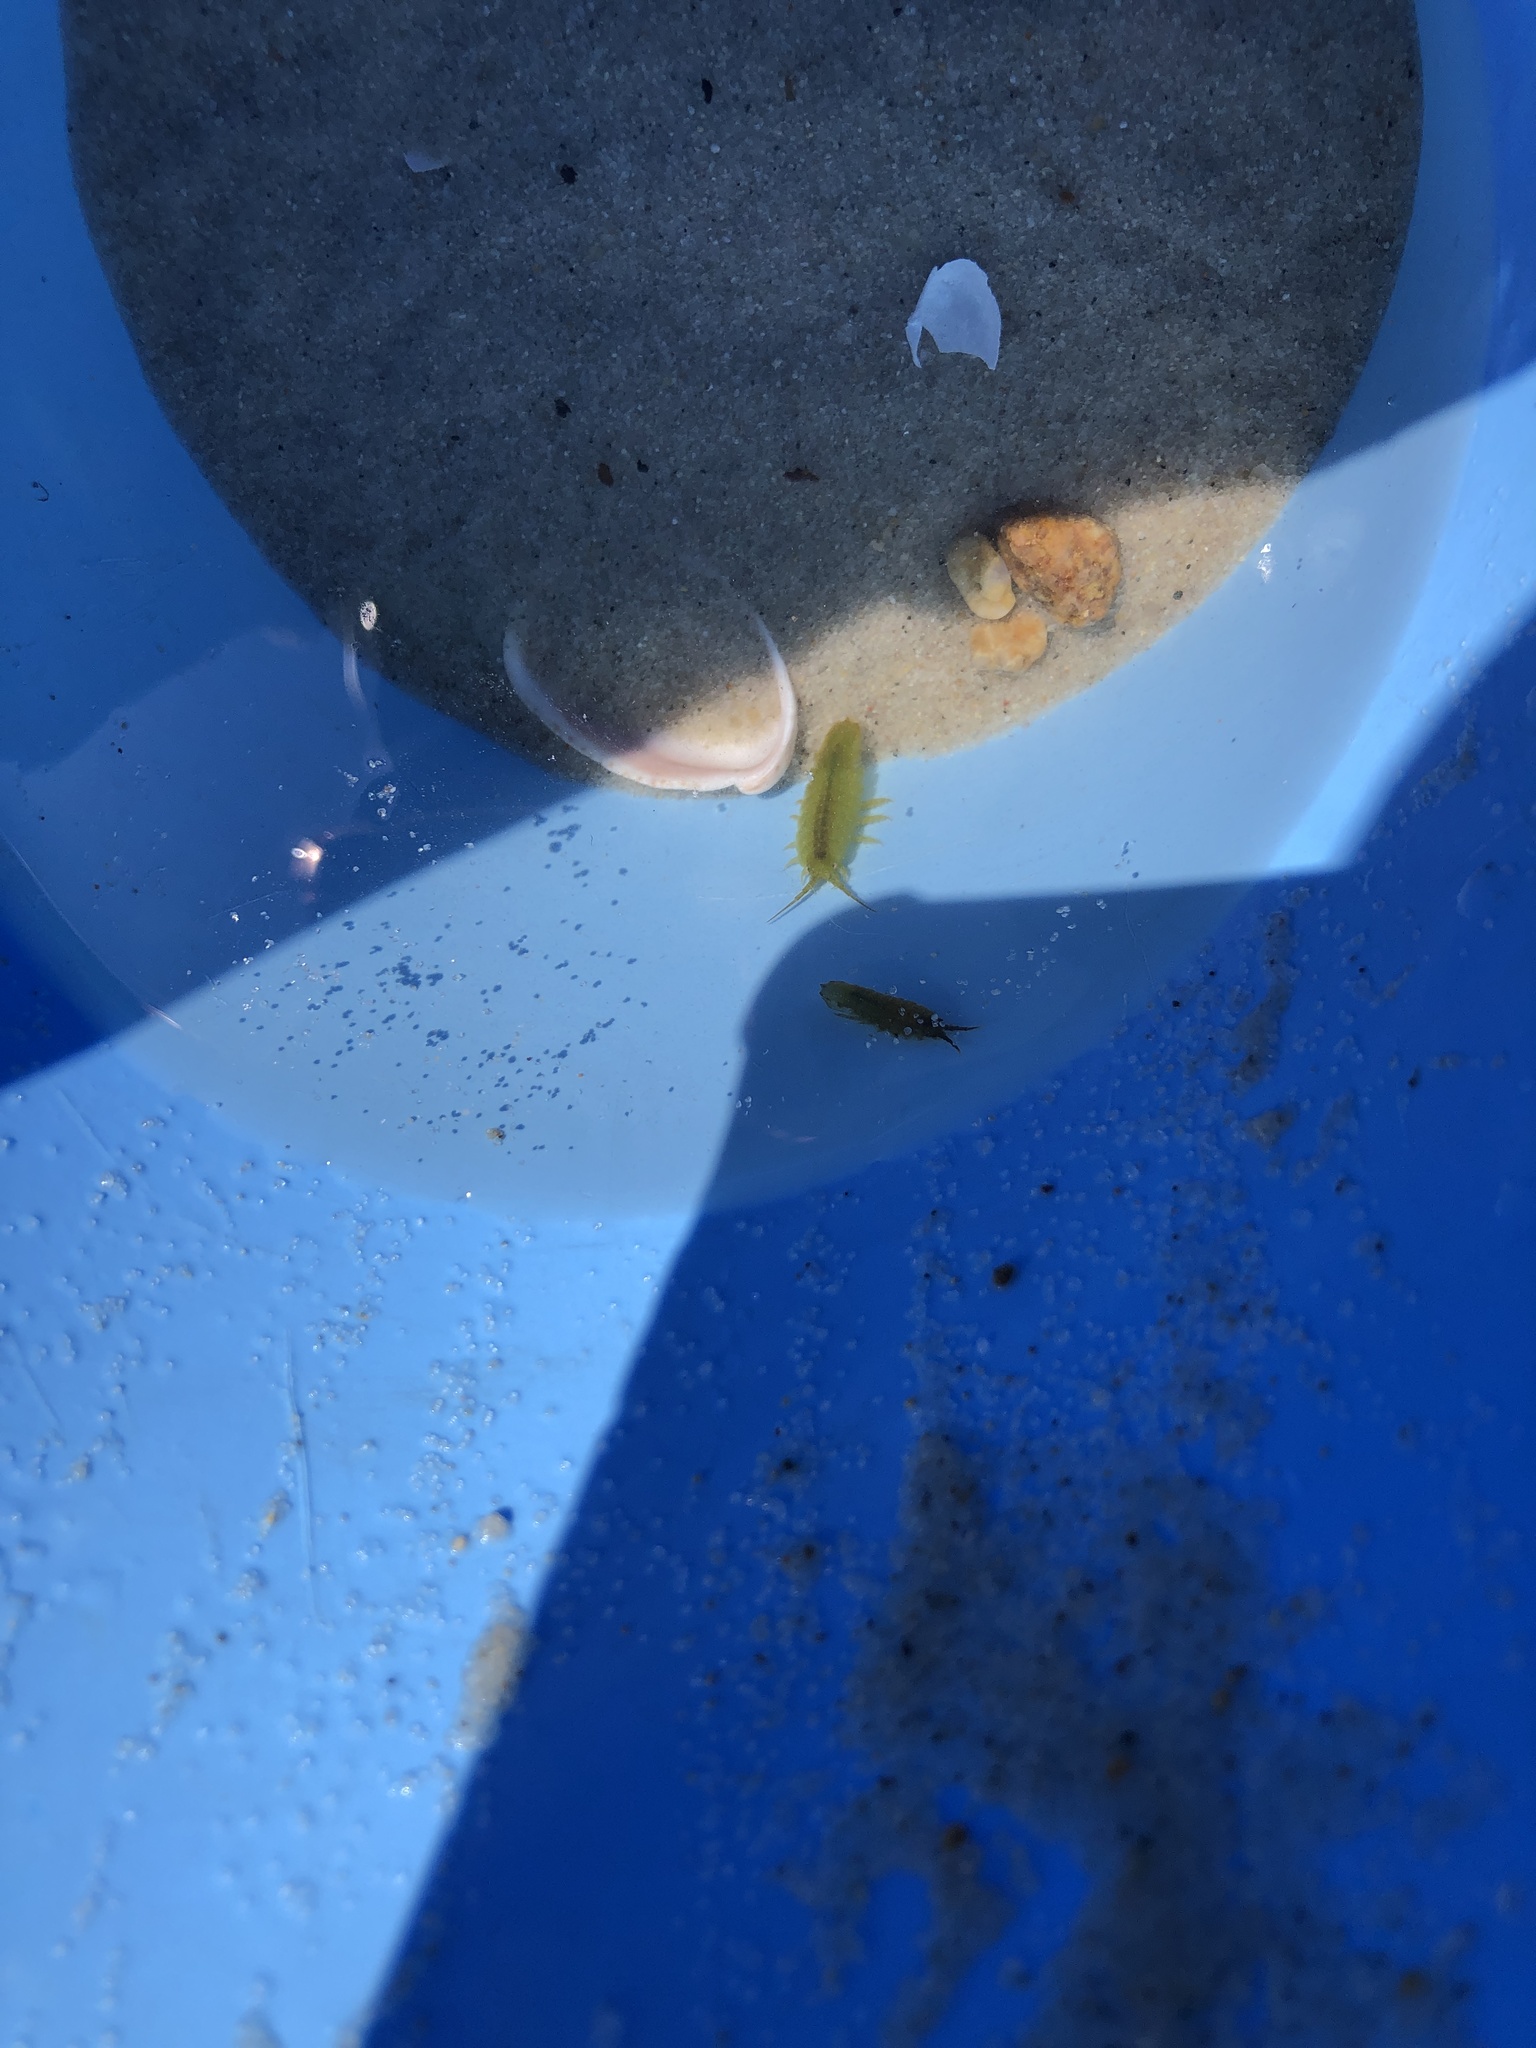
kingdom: Animalia
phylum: Arthropoda
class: Malacostraca
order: Isopoda
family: Idoteidae
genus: Idotea
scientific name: Idotea balthica
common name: Baltic isopod
